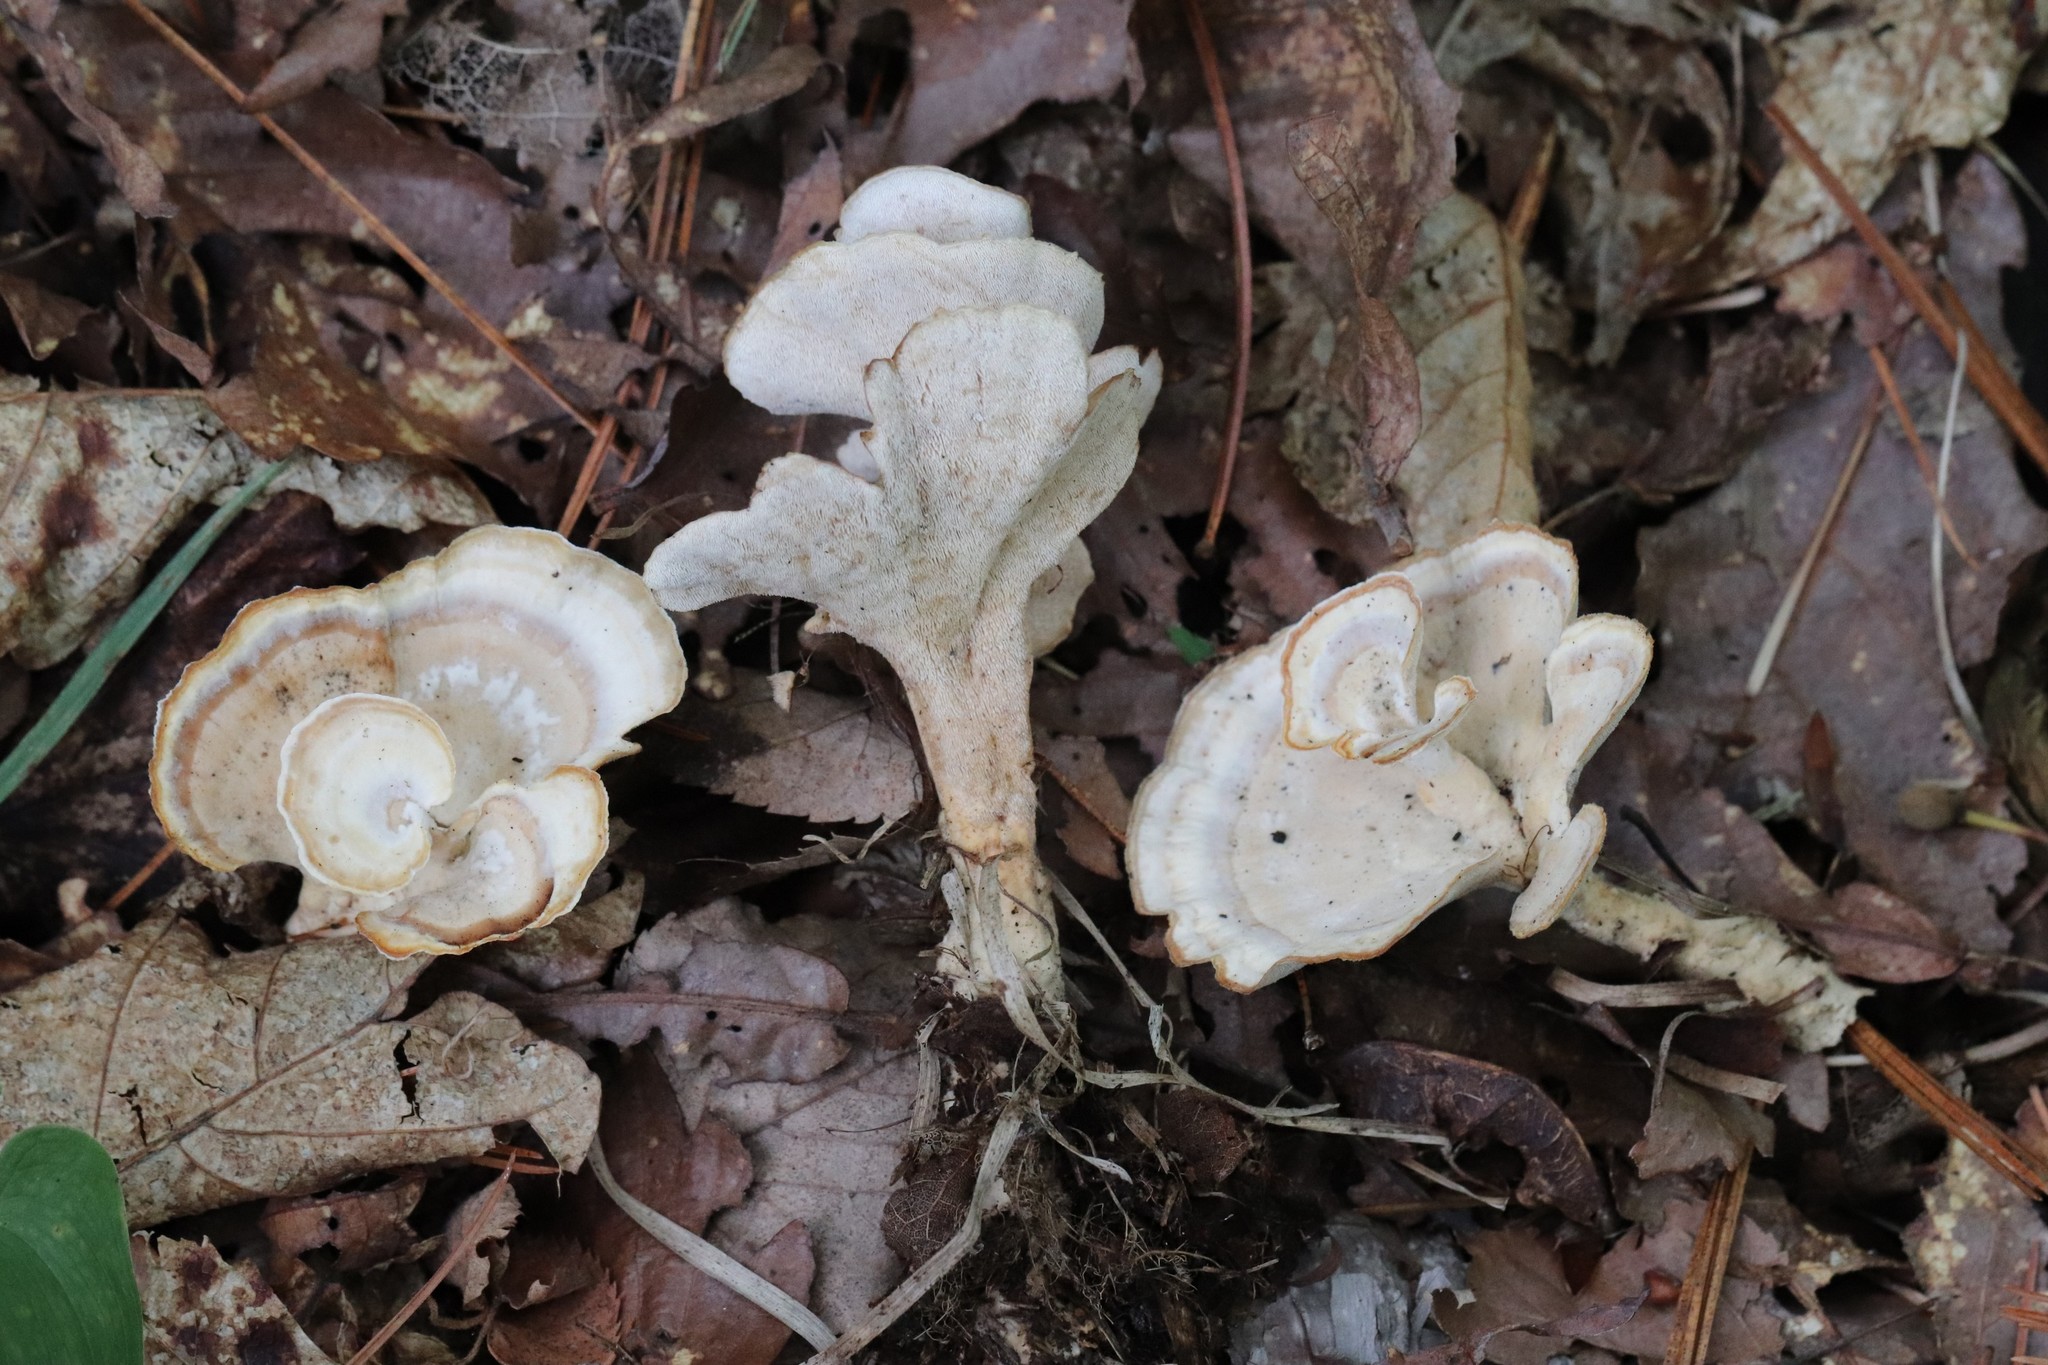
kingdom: Fungi
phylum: Basidiomycota
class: Agaricomycetes
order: Polyporales
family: Steccherinaceae
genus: Mycorrhaphium
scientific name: Mycorrhaphium adustum
